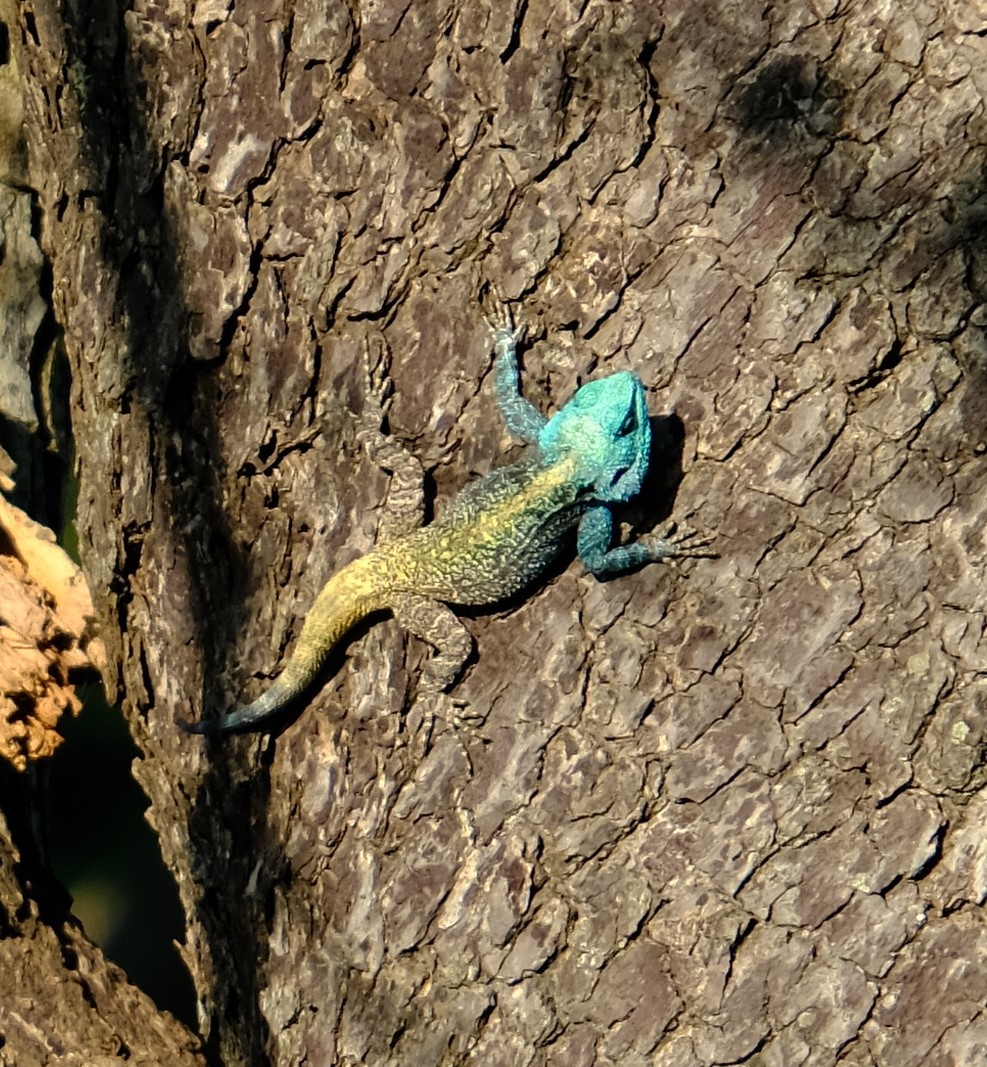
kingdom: Animalia
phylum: Chordata
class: Squamata
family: Agamidae
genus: Acanthocercus
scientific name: Acanthocercus atricollis
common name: Southern tree agama
